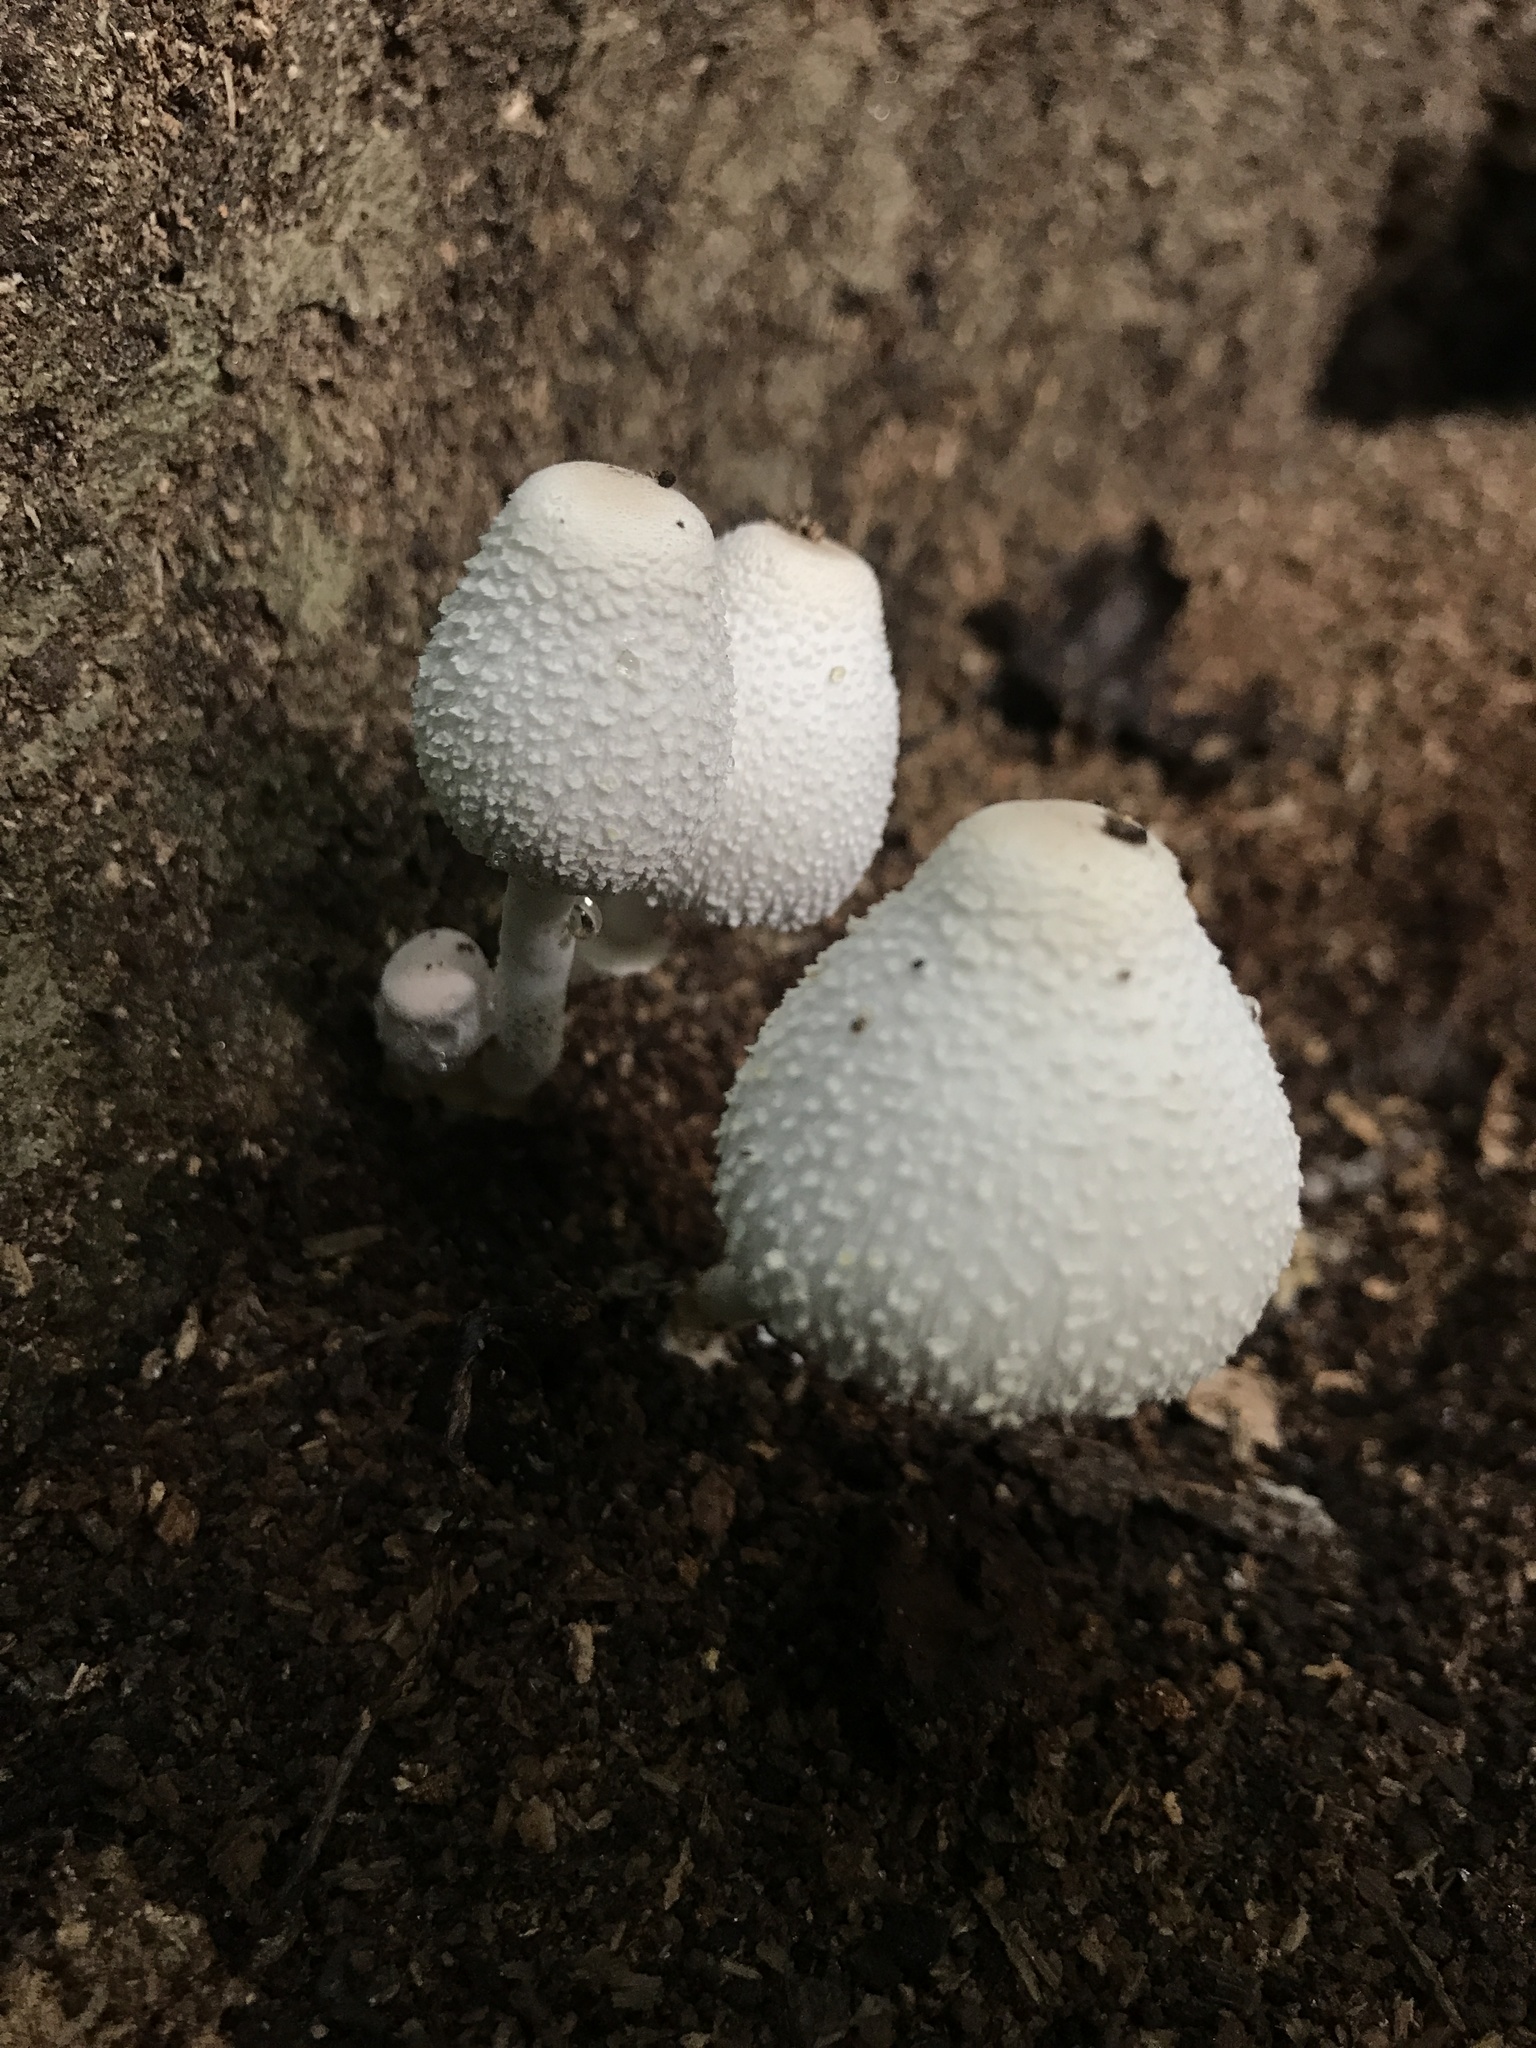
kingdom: Fungi
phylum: Basidiomycota
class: Agaricomycetes
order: Agaricales
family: Agaricaceae
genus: Leucocoprinus
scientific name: Leucocoprinus cepistipes
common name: Onion-stalk parasol
